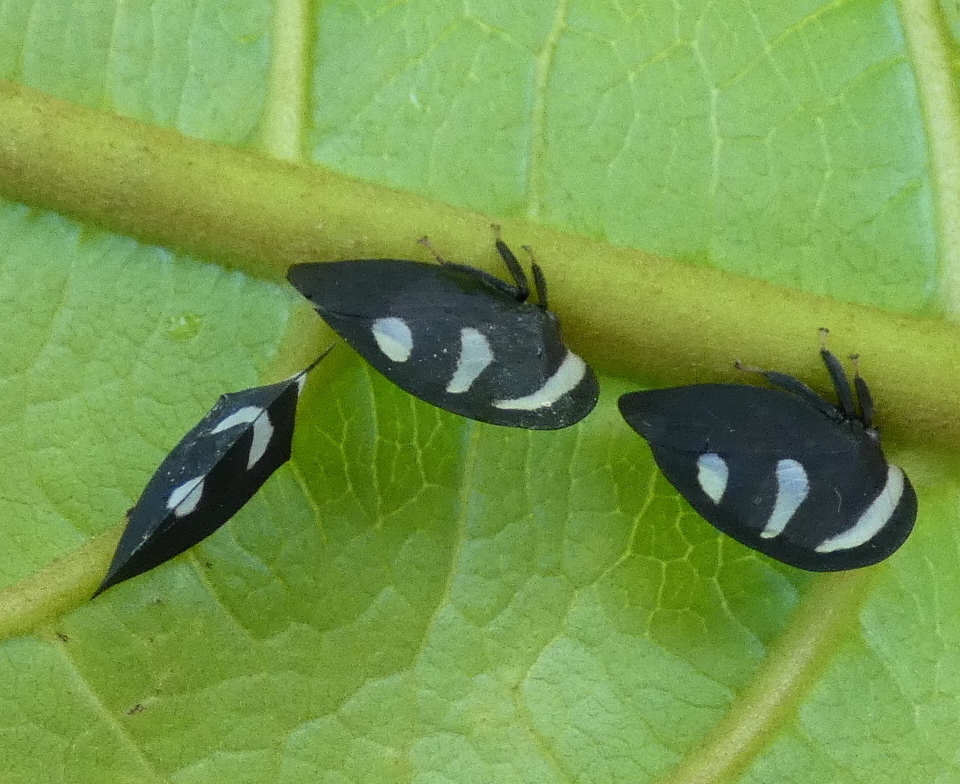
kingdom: Animalia
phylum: Arthropoda
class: Insecta
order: Hemiptera
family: Membracidae
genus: Membracis
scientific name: Membracis
